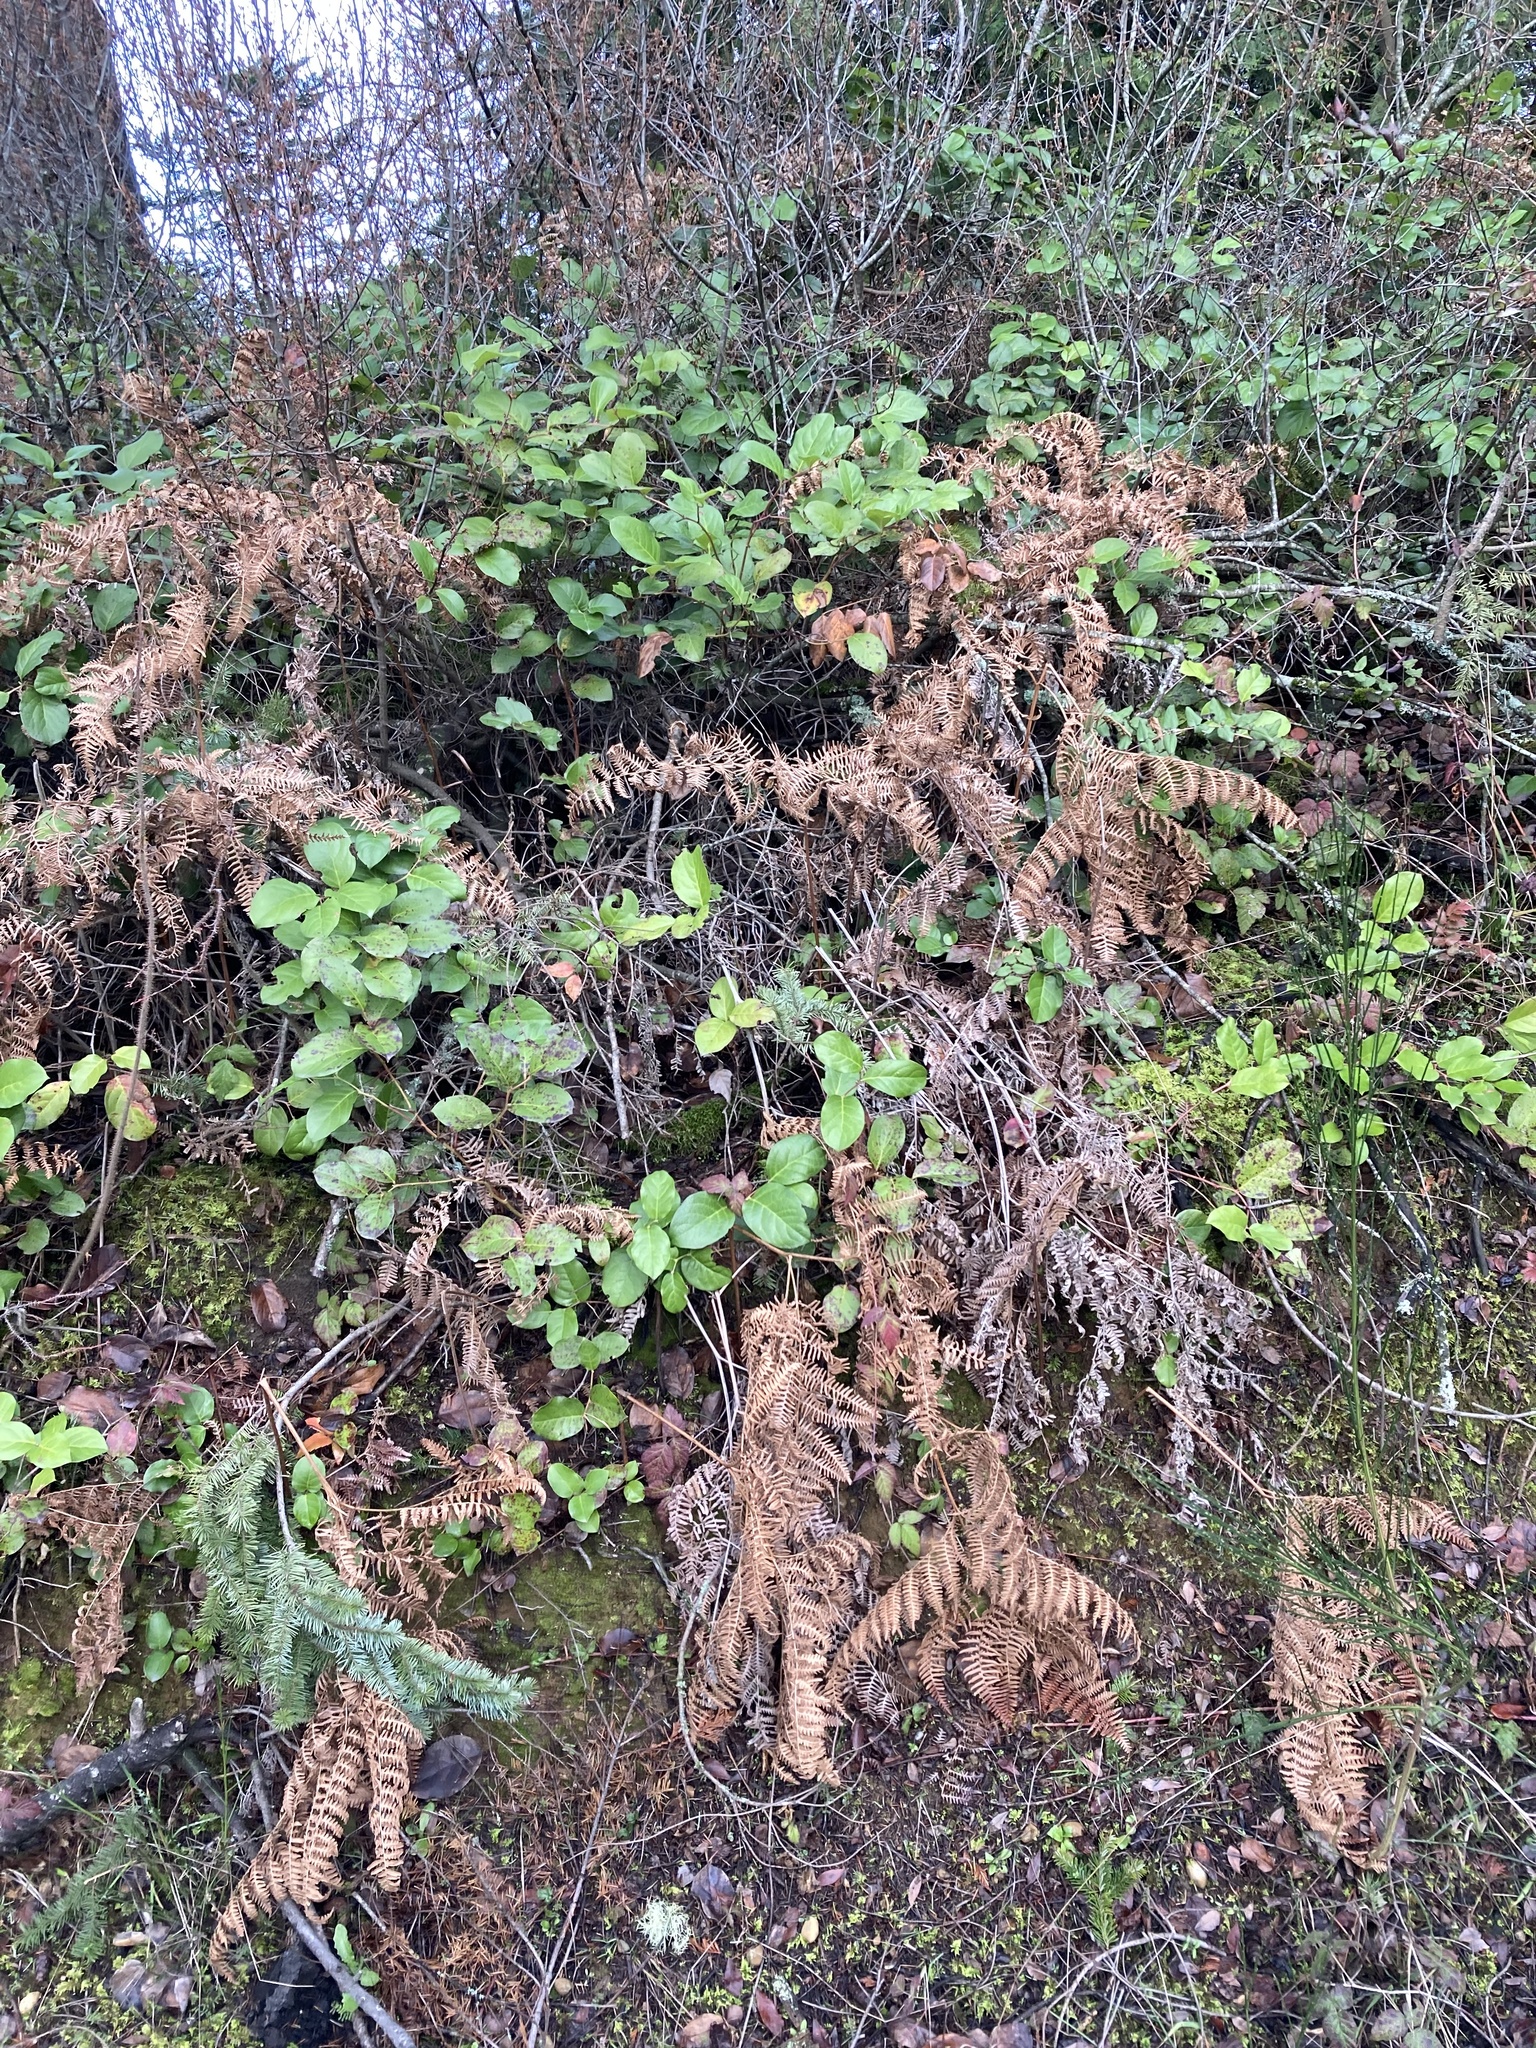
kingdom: Plantae
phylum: Tracheophyta
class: Polypodiopsida
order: Polypodiales
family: Dennstaedtiaceae
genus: Pteridium
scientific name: Pteridium aquilinum
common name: Bracken
